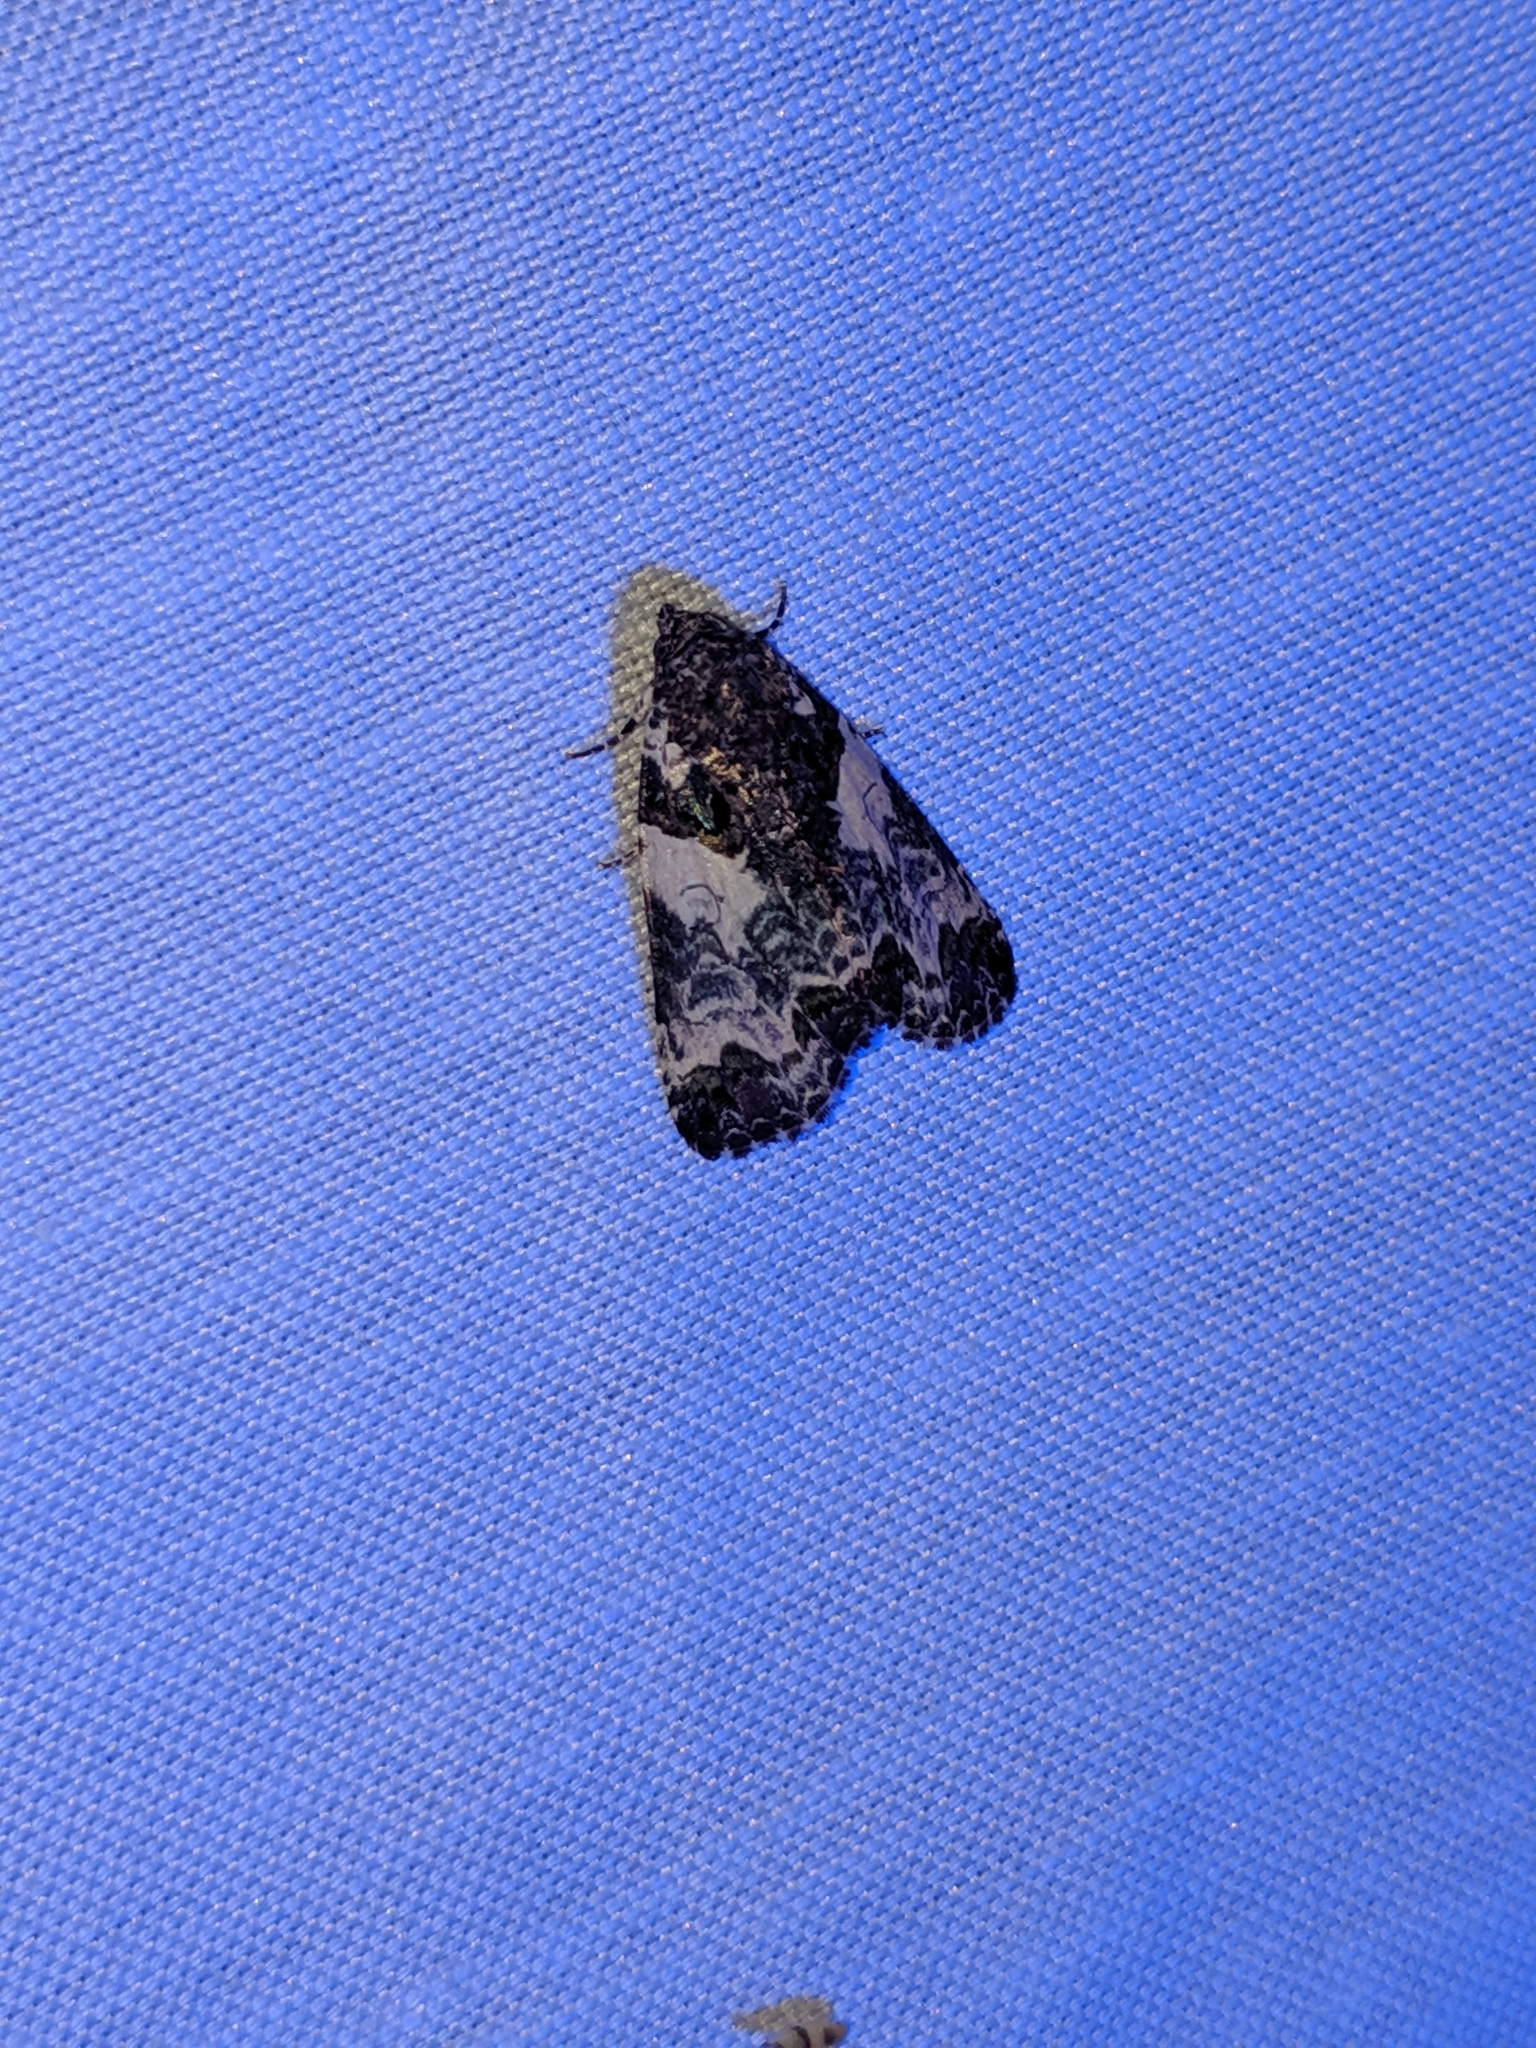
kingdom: Animalia
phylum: Arthropoda
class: Insecta
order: Lepidoptera
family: Noctuidae
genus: Cerma
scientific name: Cerma cerintha
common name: Tufted bird-dropping moth
